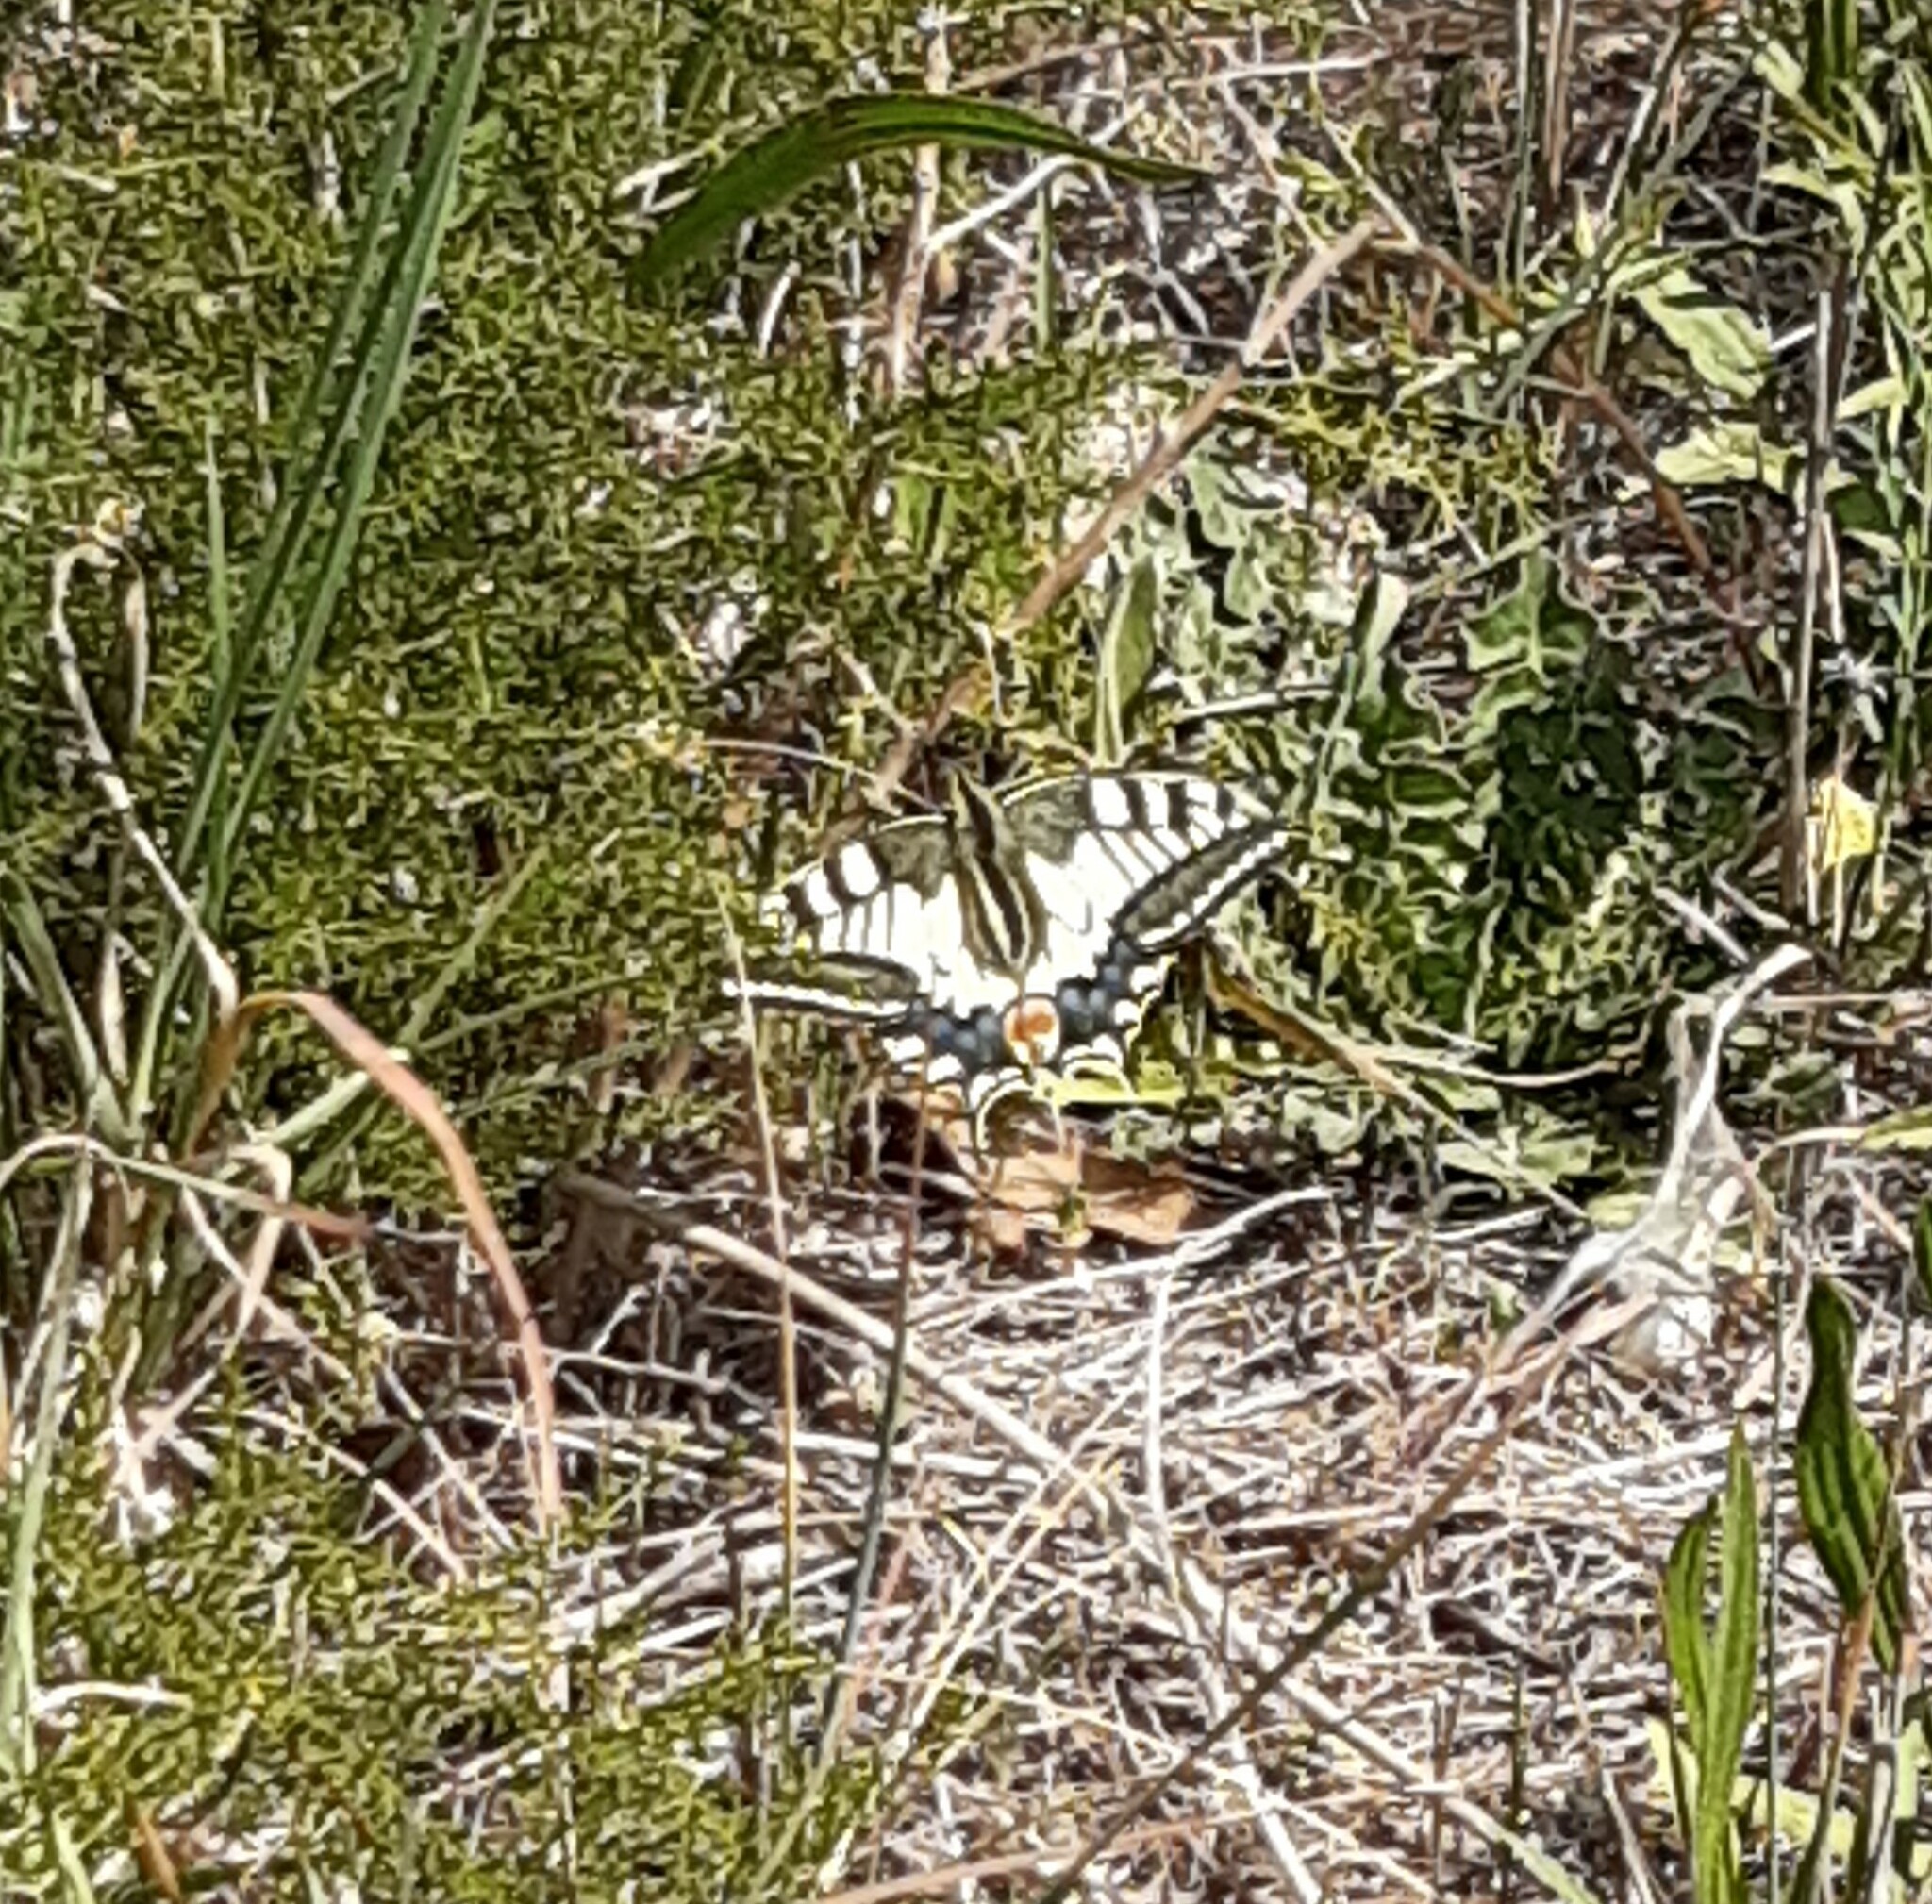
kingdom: Animalia
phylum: Arthropoda
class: Insecta
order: Lepidoptera
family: Papilionidae
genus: Papilio
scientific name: Papilio machaon
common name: Swallowtail
